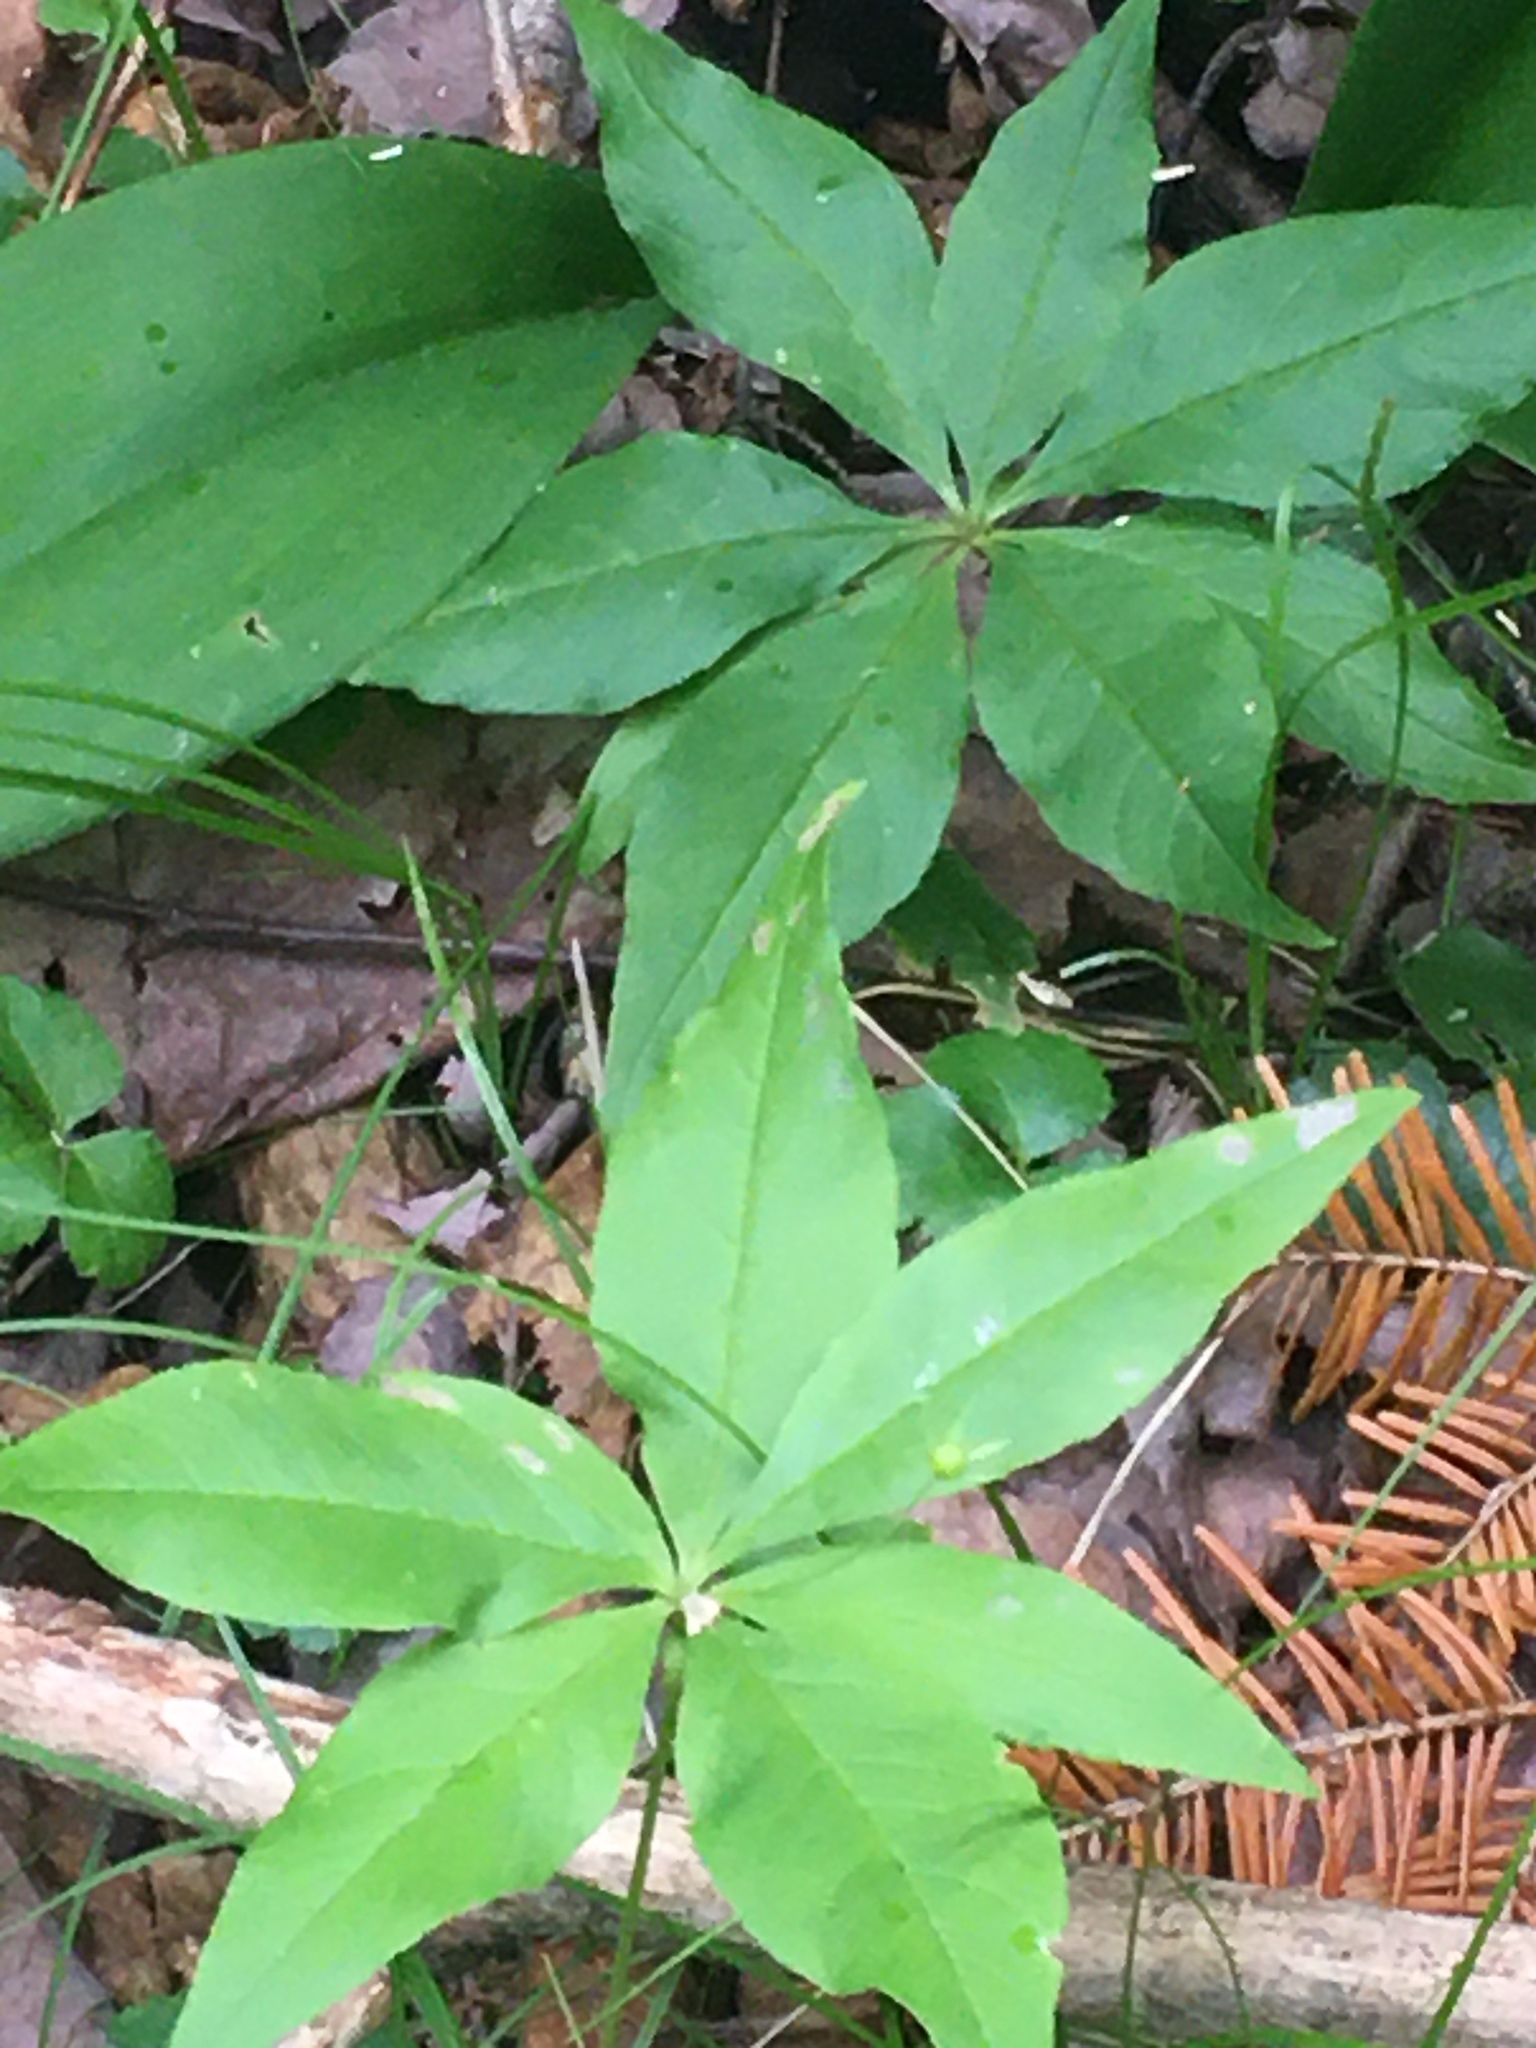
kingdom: Plantae
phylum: Tracheophyta
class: Magnoliopsida
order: Ericales
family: Primulaceae
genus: Lysimachia
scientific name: Lysimachia borealis
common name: American starflower
